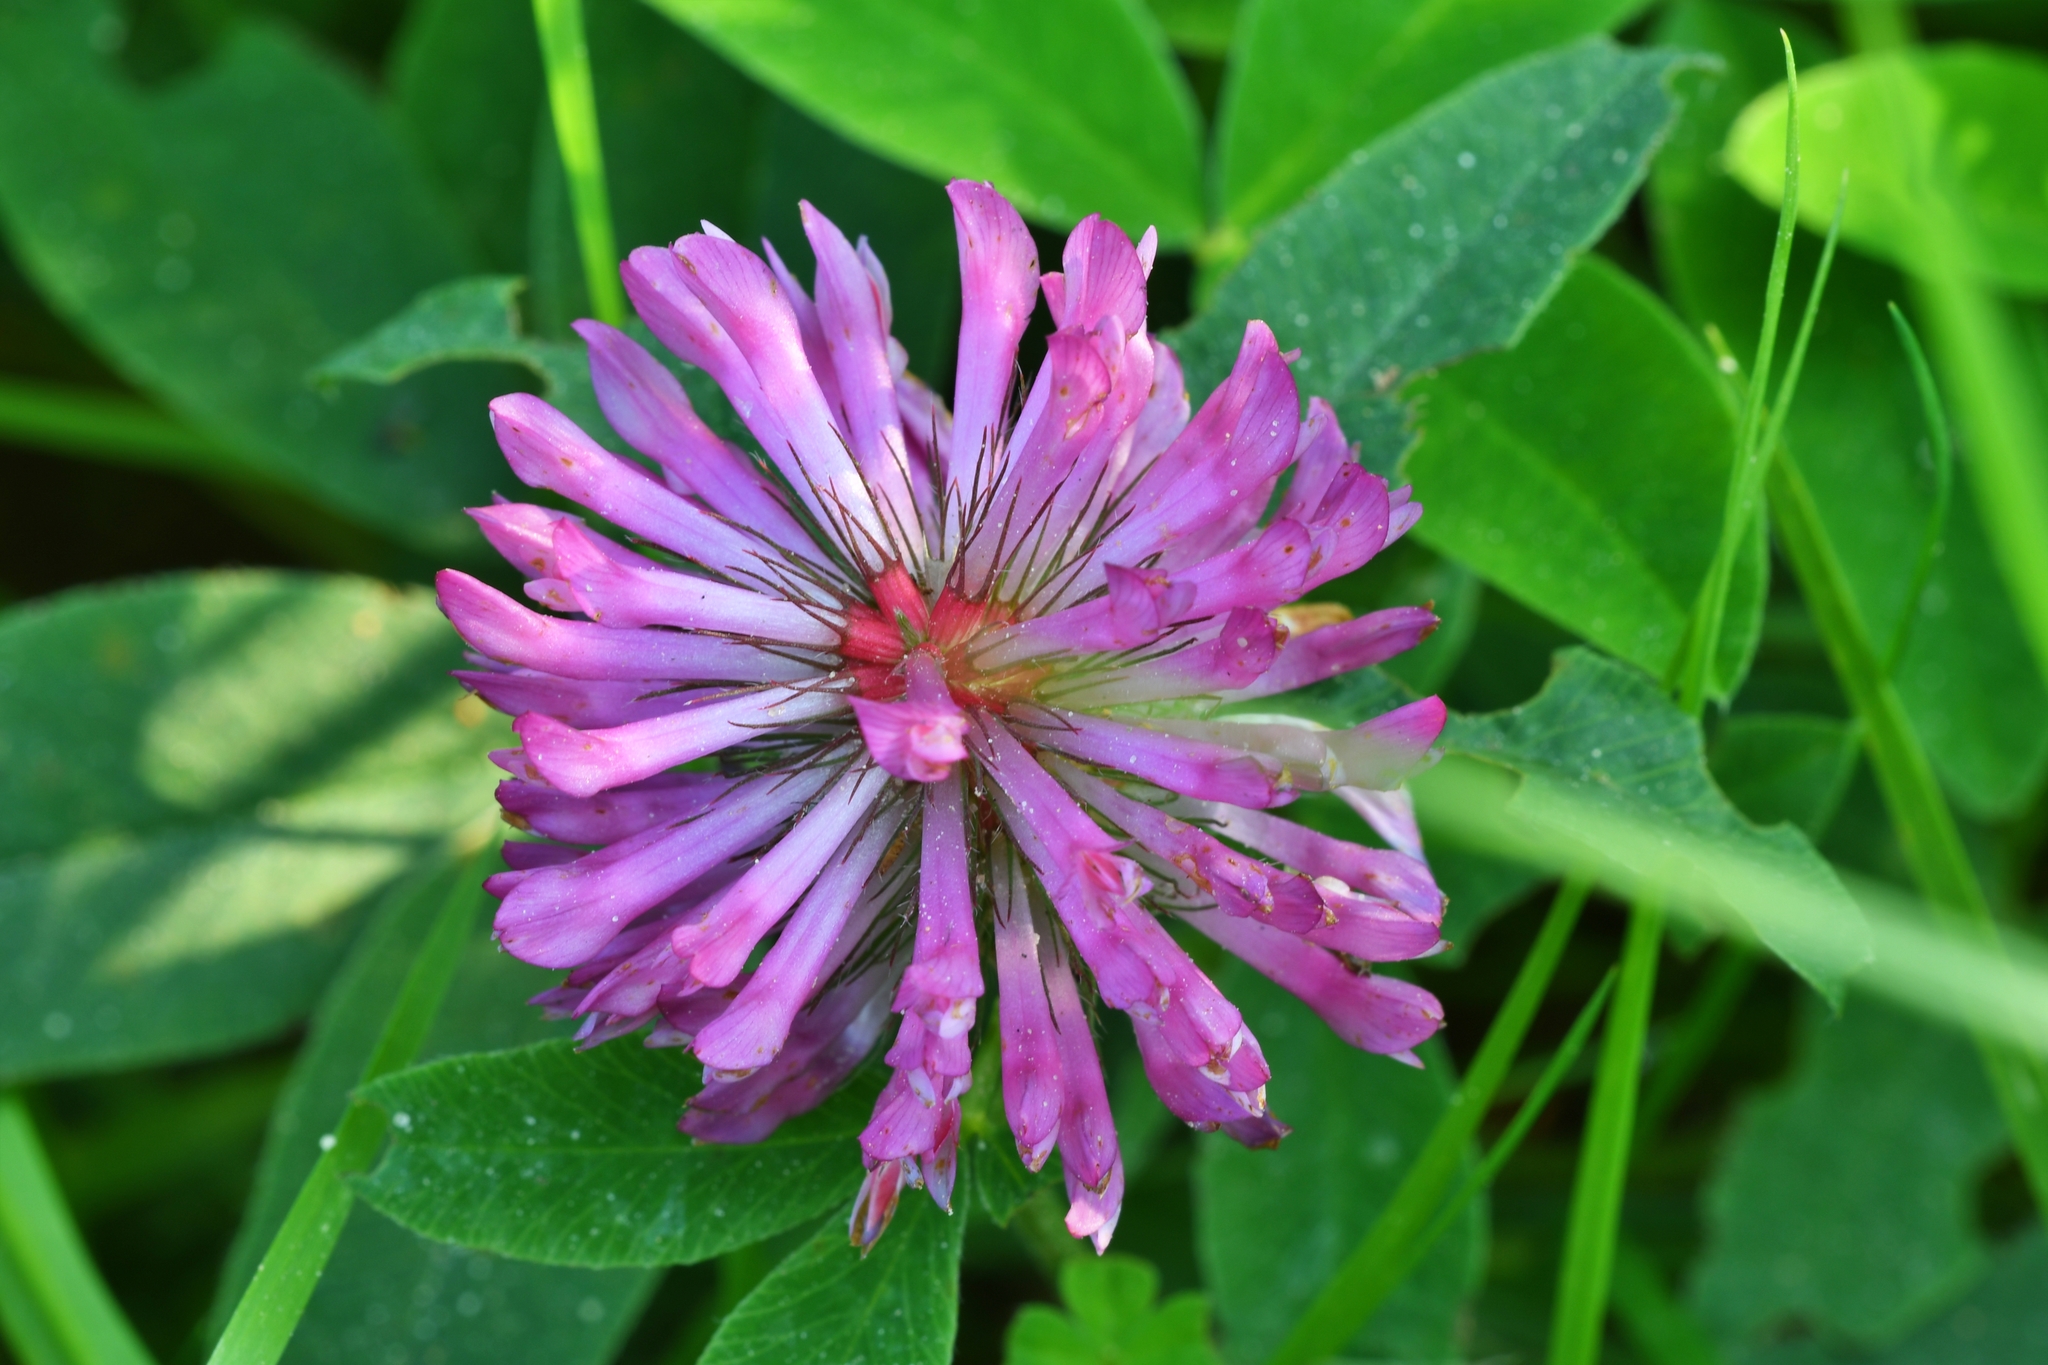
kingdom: Plantae
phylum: Tracheophyta
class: Magnoliopsida
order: Fabales
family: Fabaceae
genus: Trifolium
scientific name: Trifolium medium
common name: Zigzag clover
